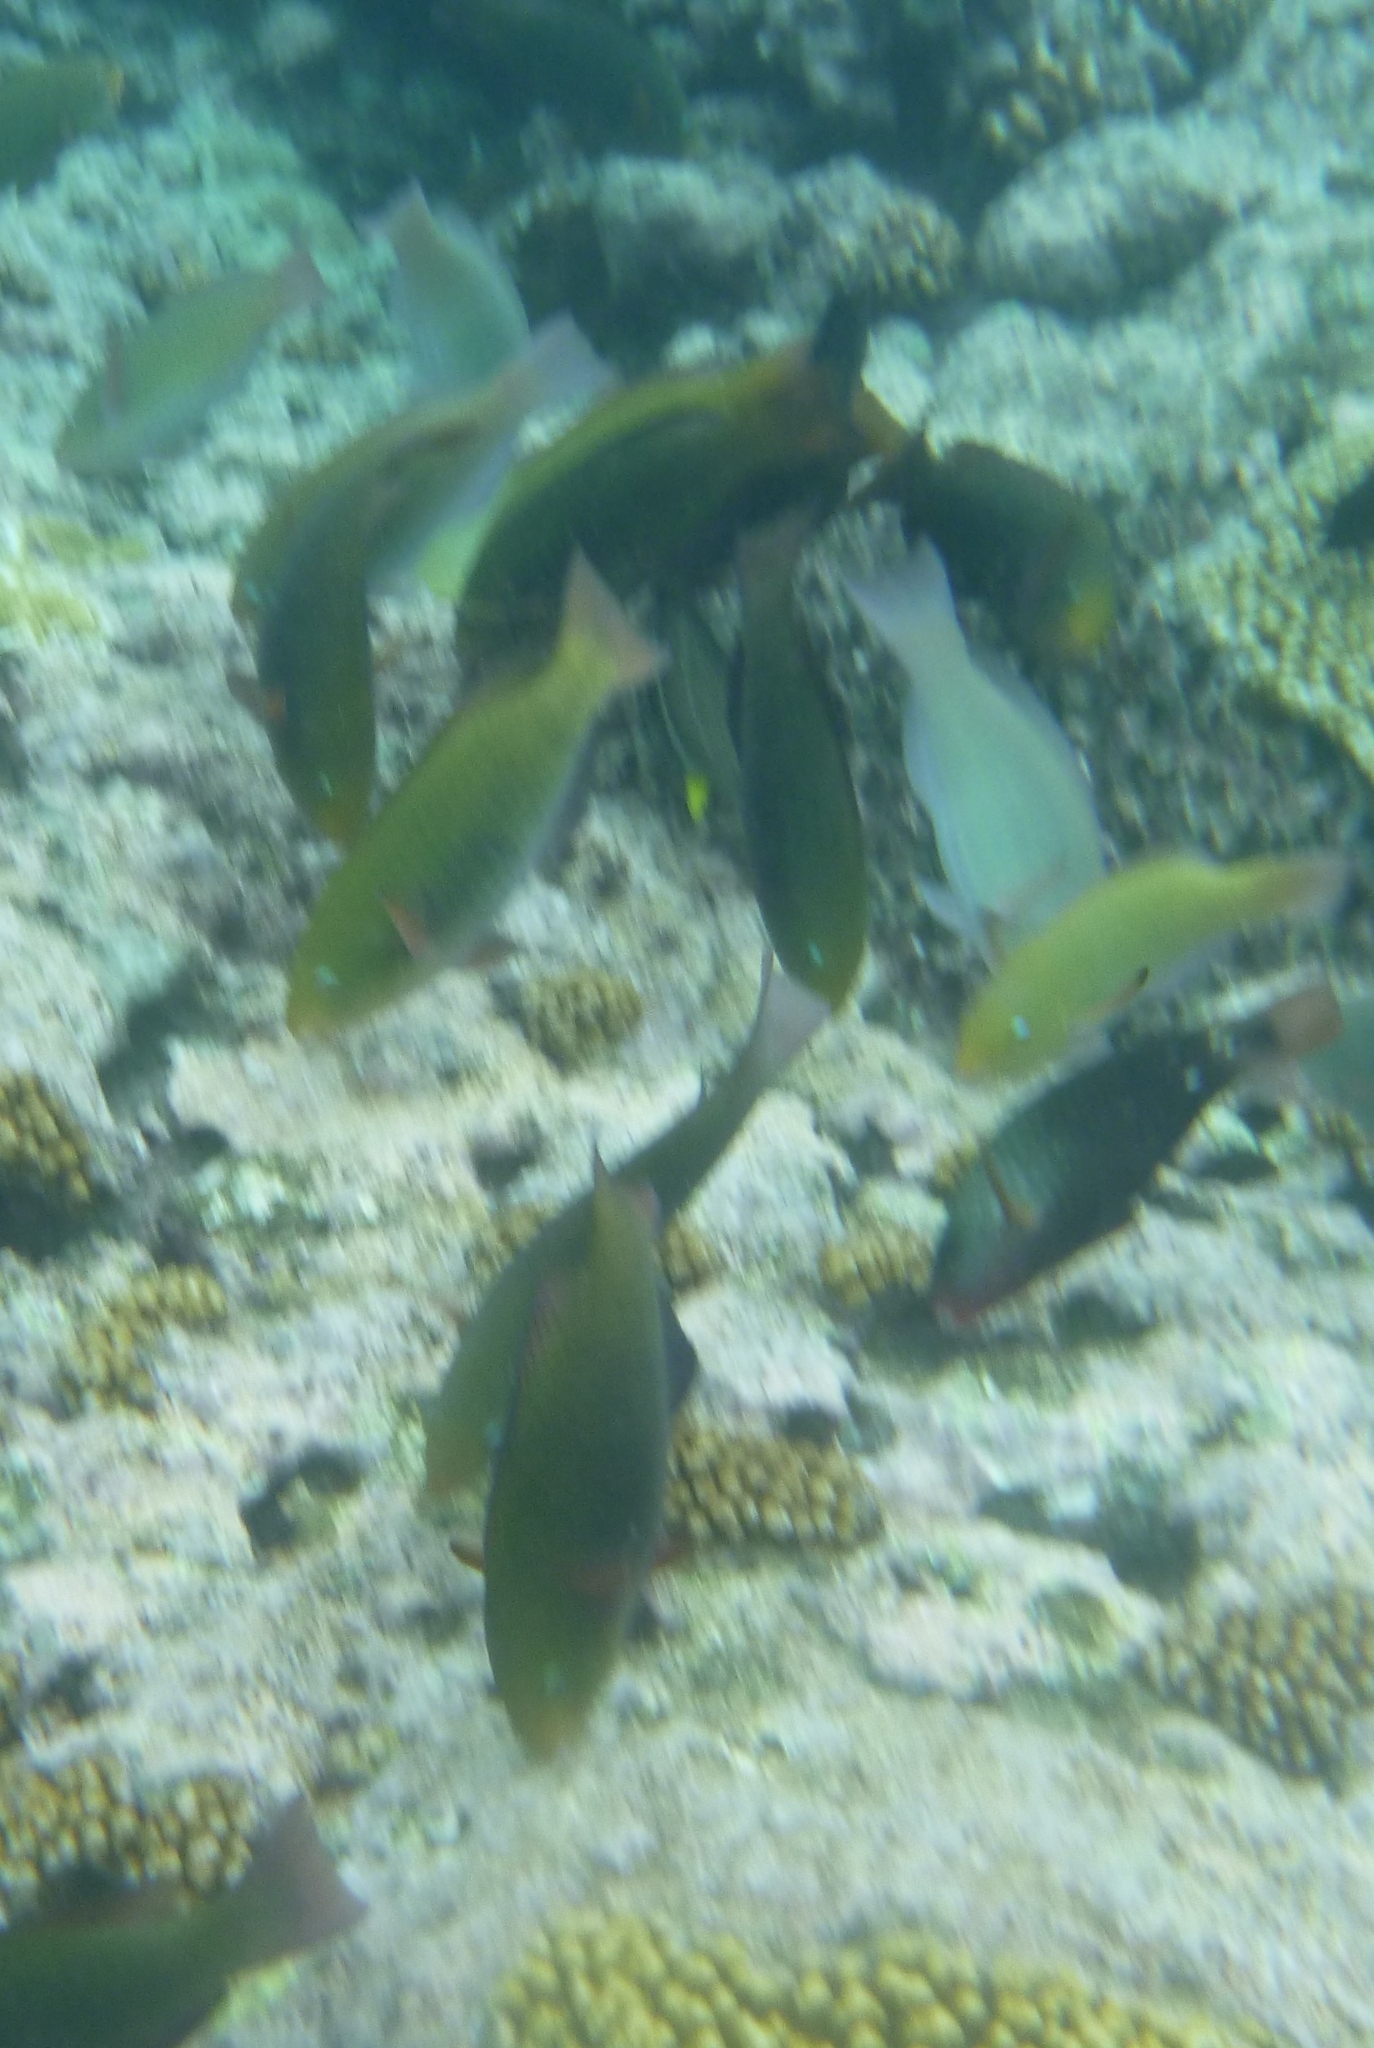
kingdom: Animalia
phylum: Chordata
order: Perciformes
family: Labridae
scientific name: Labridae
